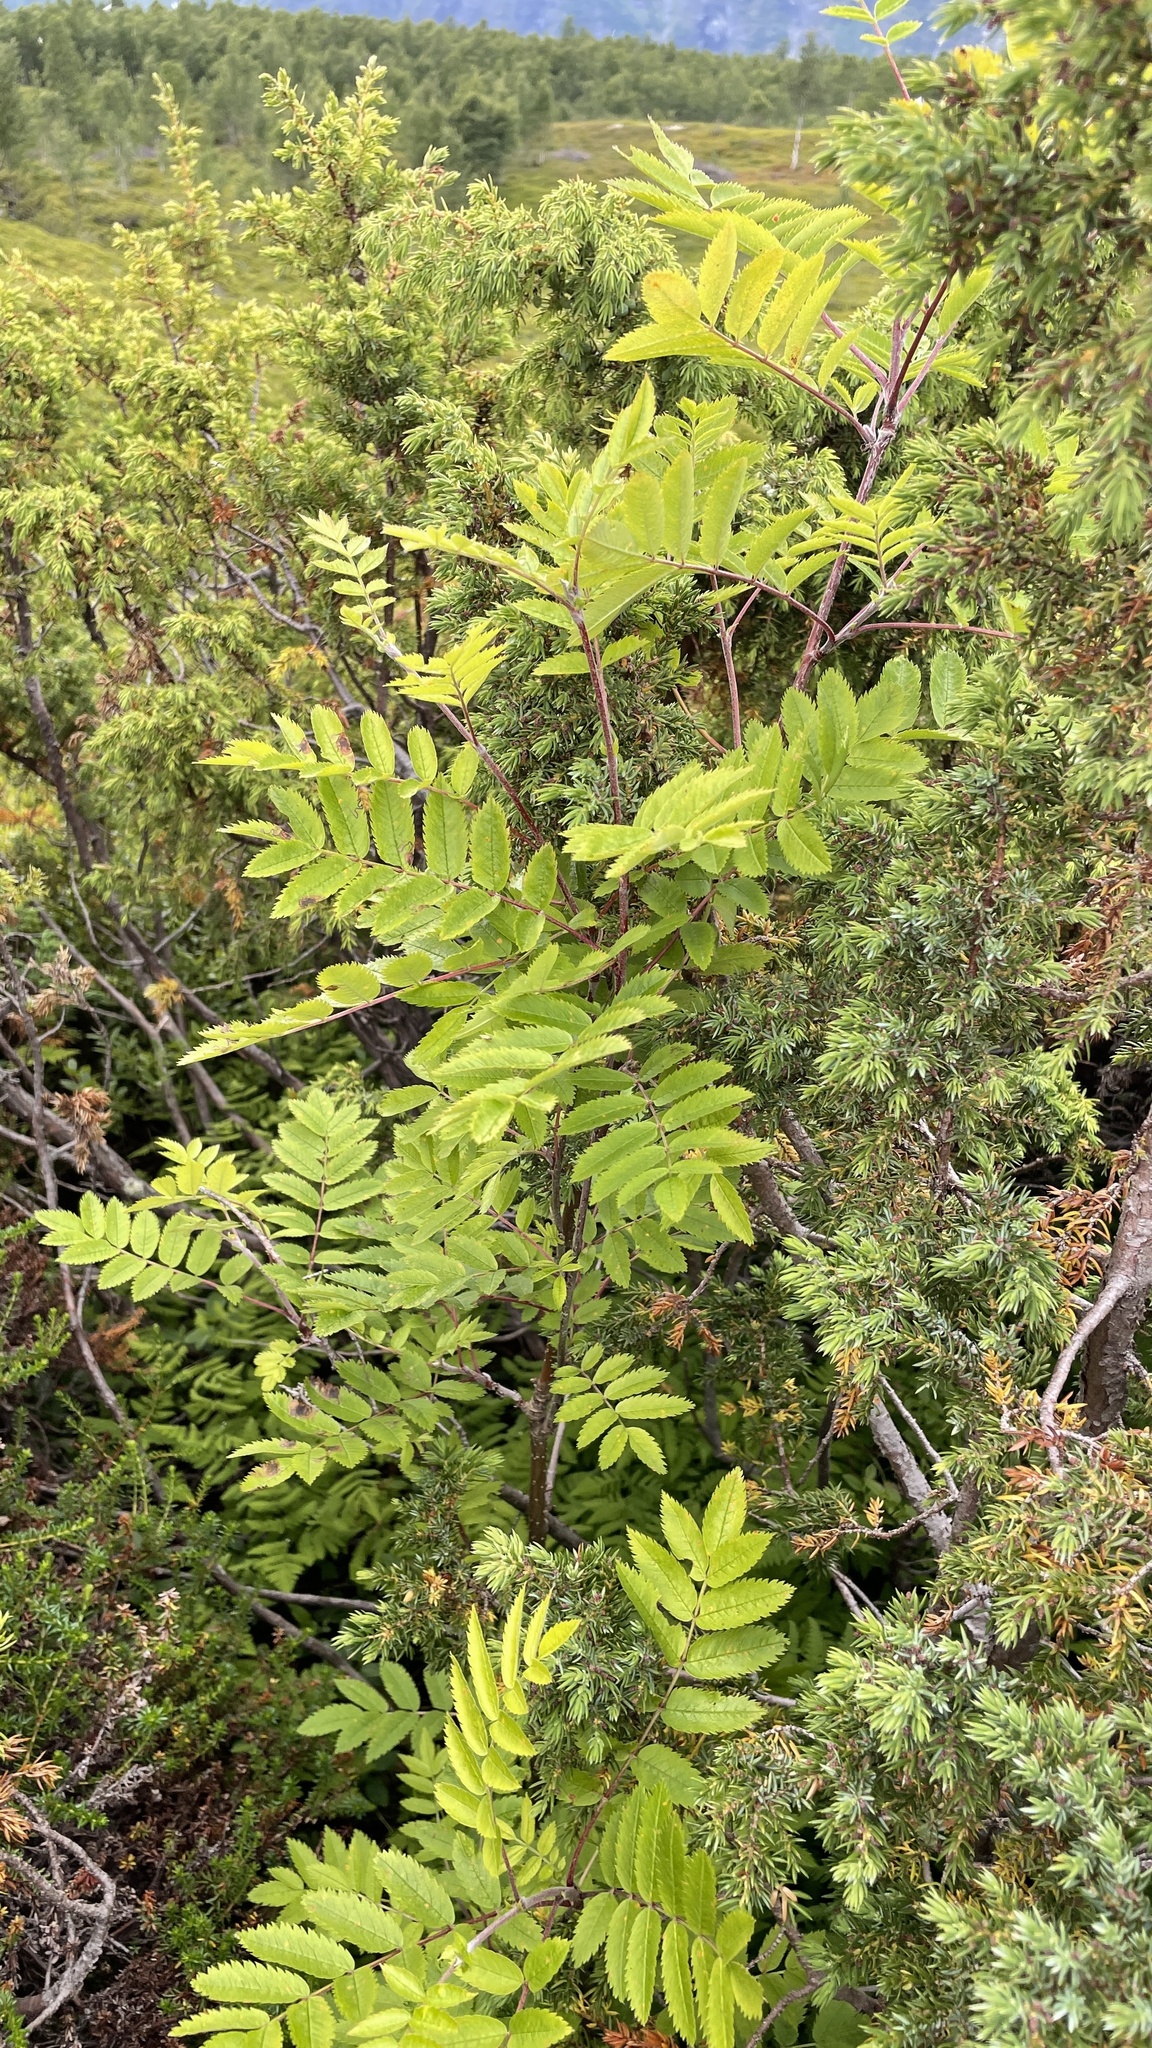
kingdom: Plantae
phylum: Tracheophyta
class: Magnoliopsida
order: Rosales
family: Rosaceae
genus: Sorbus
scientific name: Sorbus aucuparia
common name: Rowan
